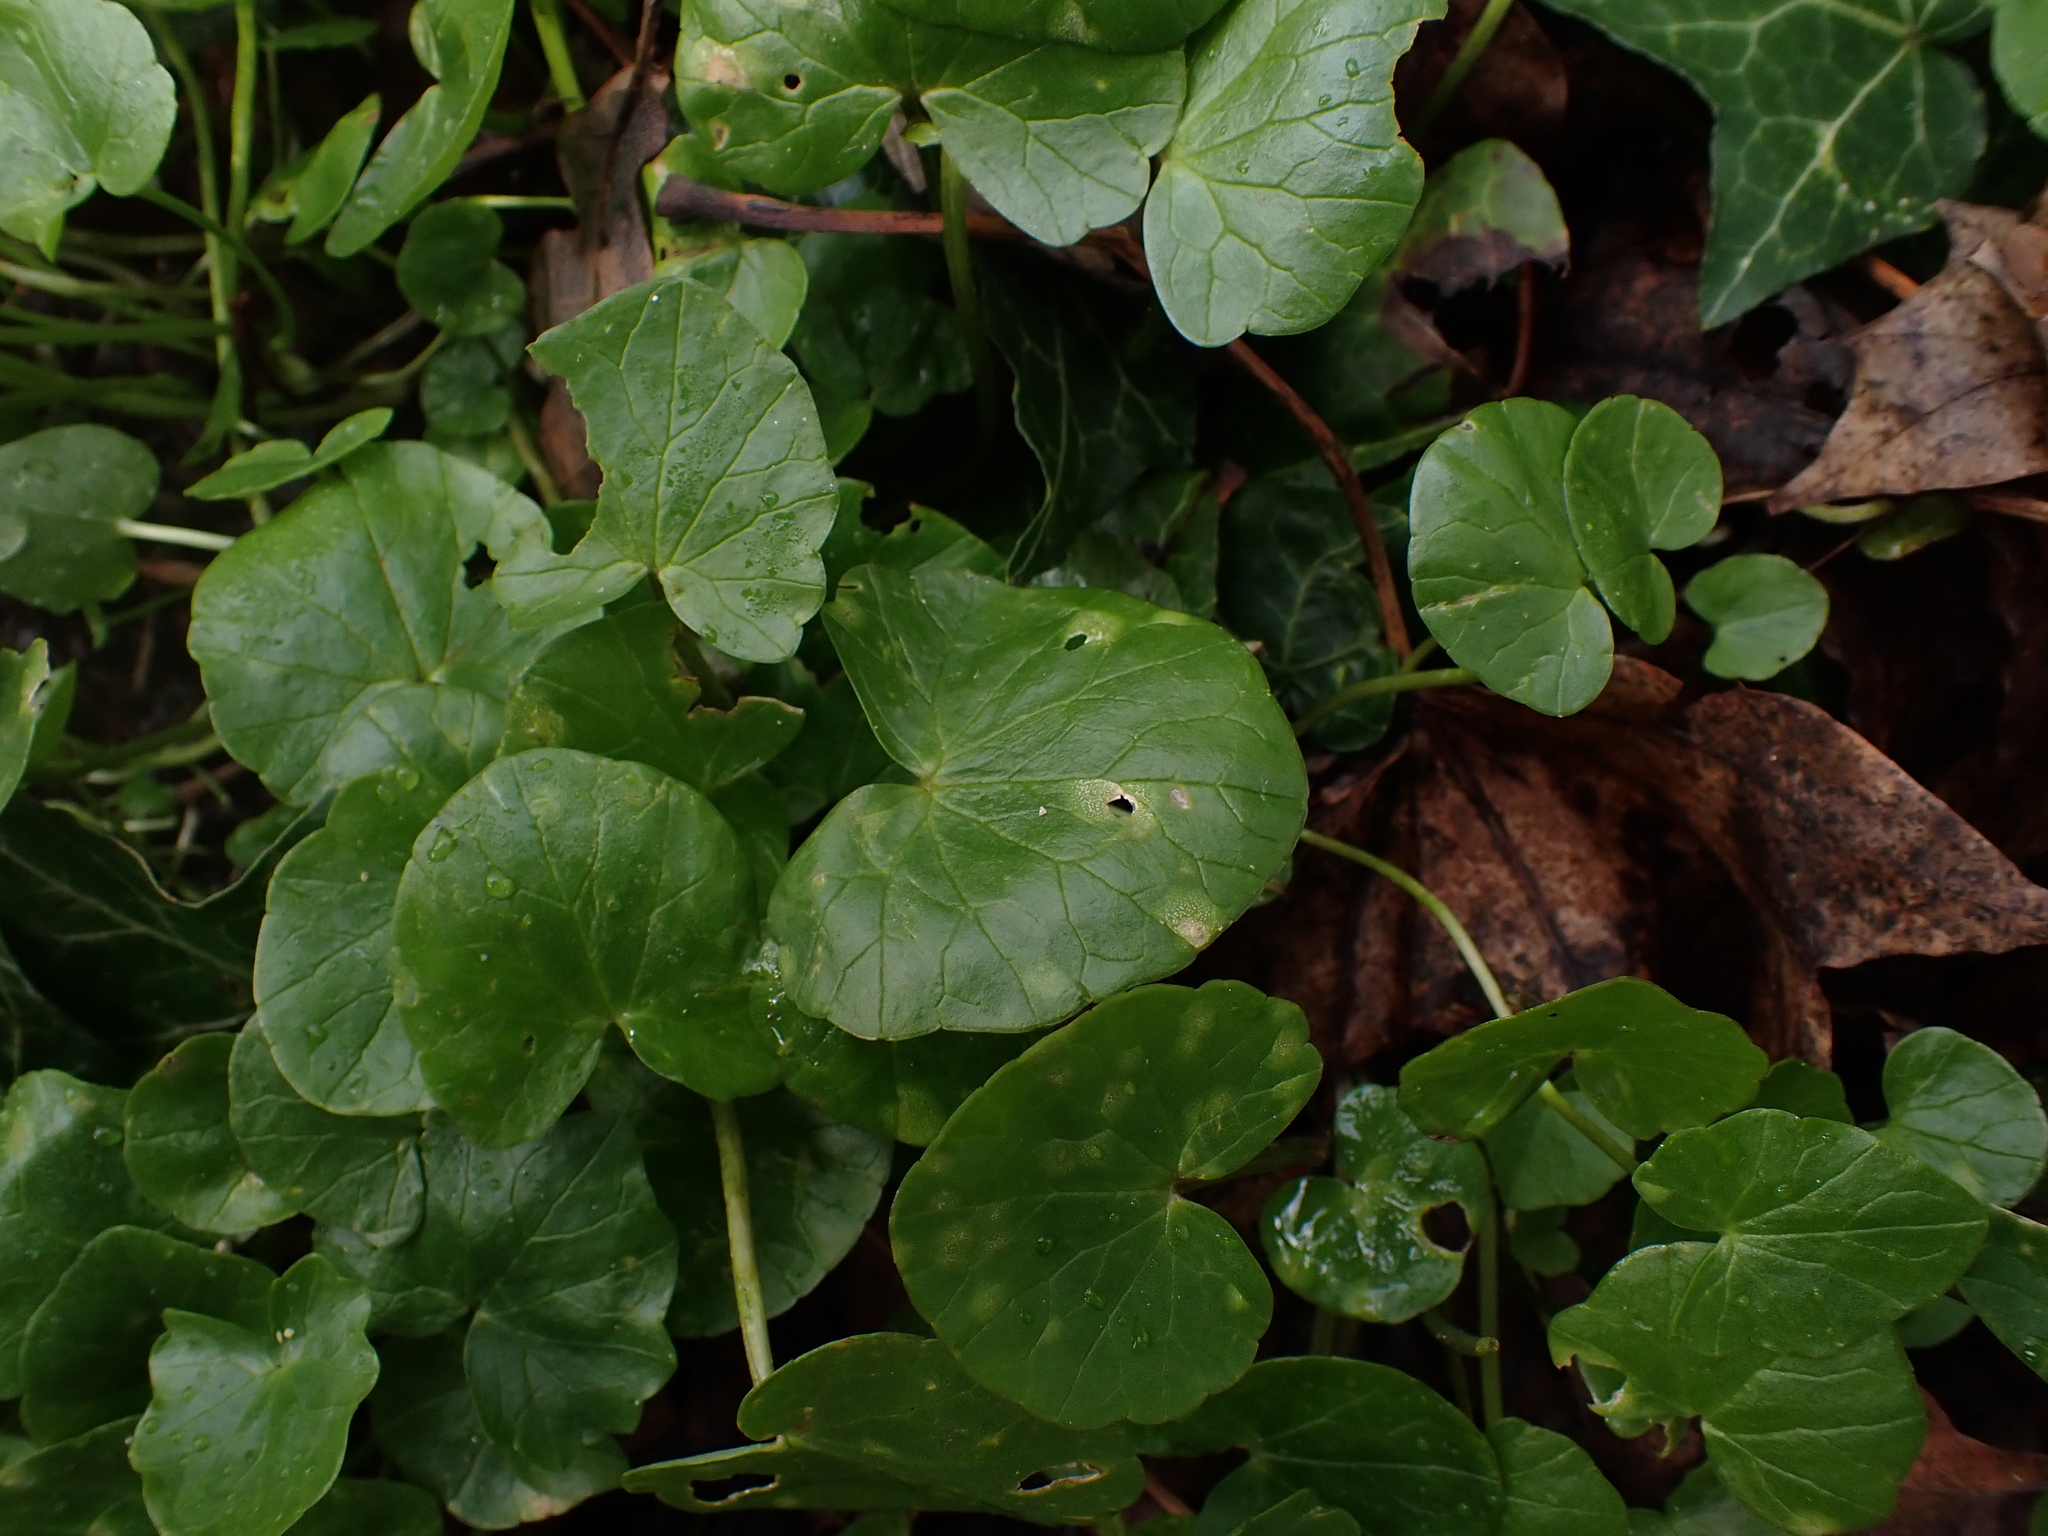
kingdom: Fungi
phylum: Basidiomycota
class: Exobasidiomycetes
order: Entylomatales
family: Entylomataceae
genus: Entyloma
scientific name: Entyloma ficariae
